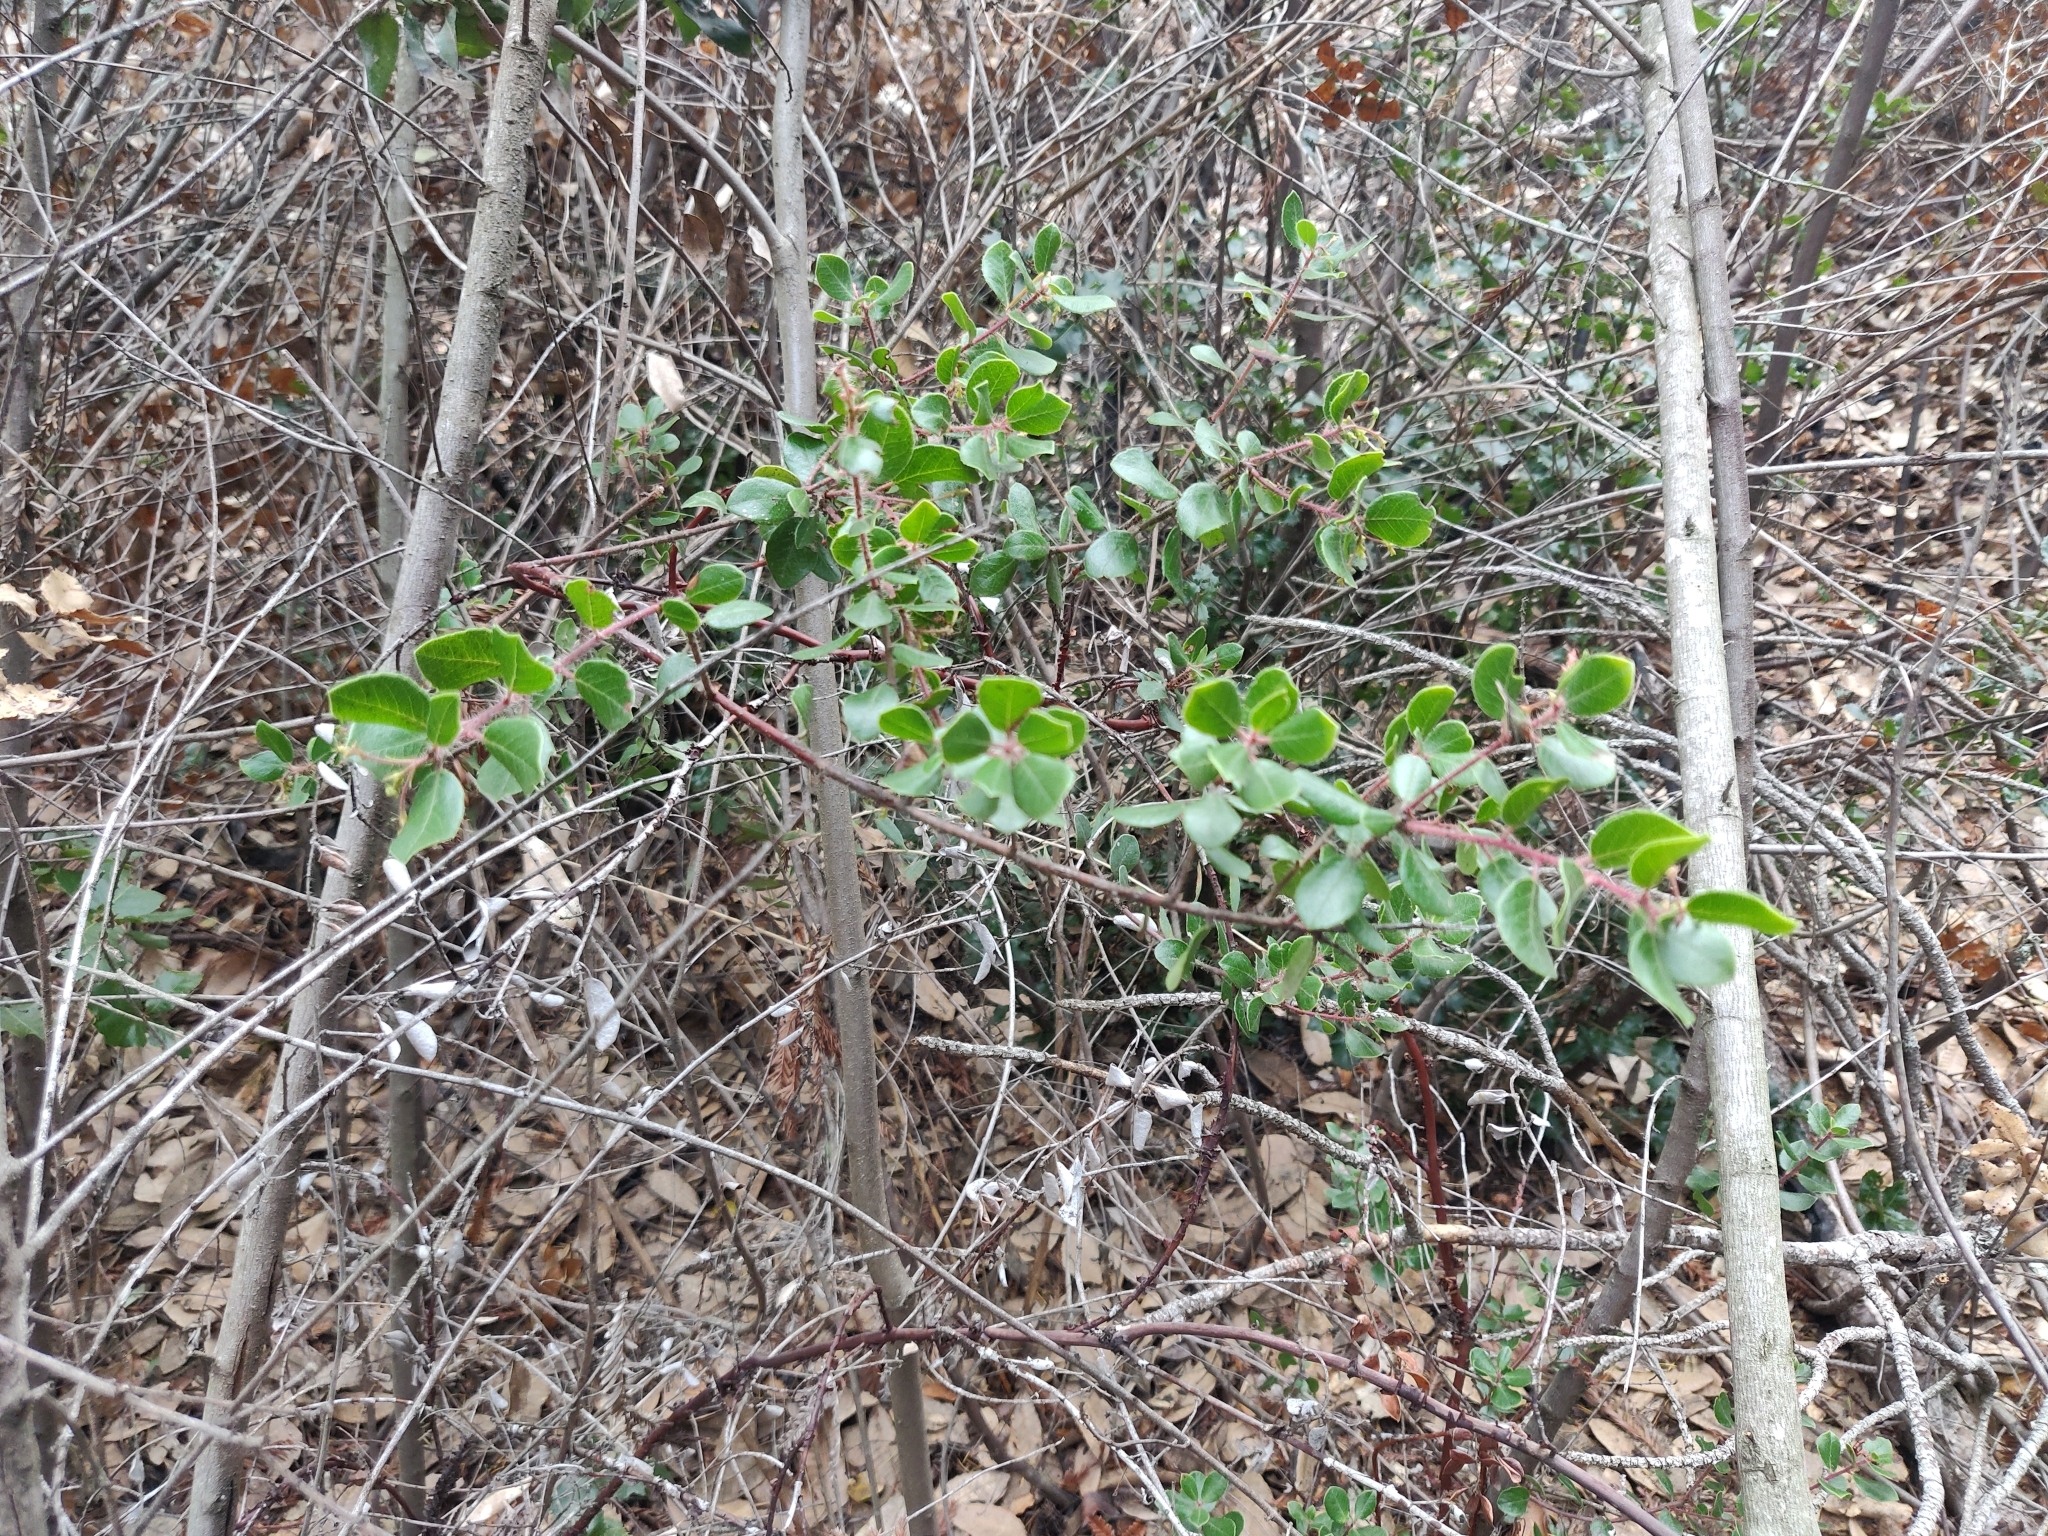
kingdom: Plantae
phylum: Tracheophyta
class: Magnoliopsida
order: Ericales
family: Ericaceae
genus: Arctostaphylos
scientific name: Arctostaphylos nummularia
